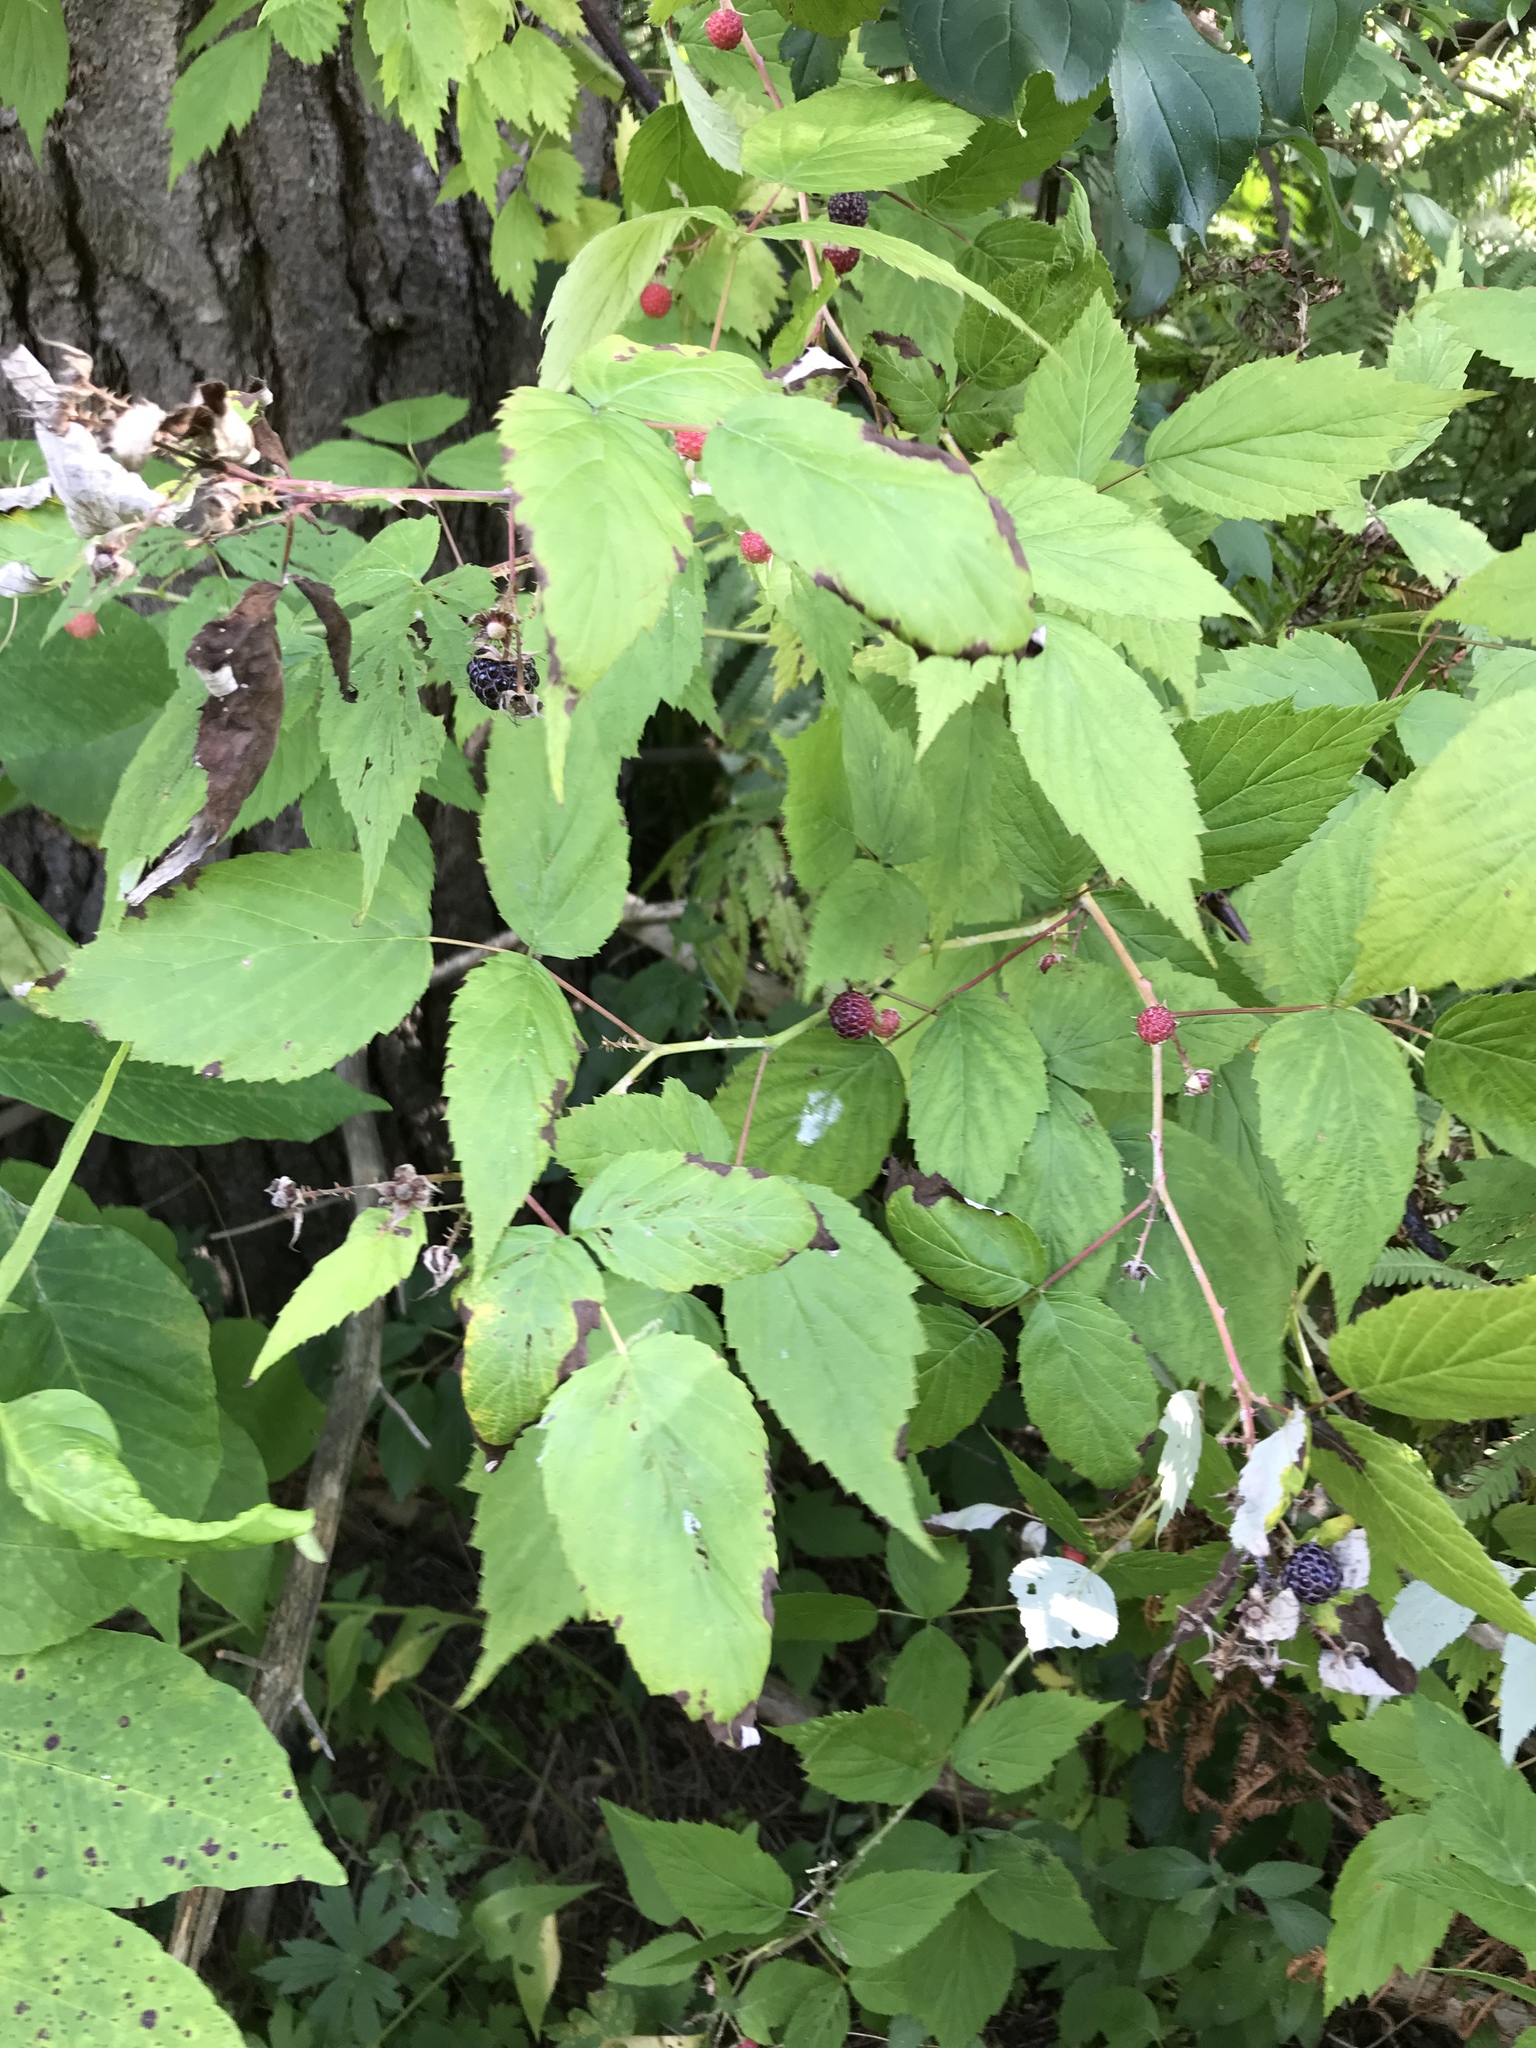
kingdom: Plantae
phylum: Tracheophyta
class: Magnoliopsida
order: Rosales
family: Rosaceae
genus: Rubus
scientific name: Rubus occidentalis
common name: Black raspberry
